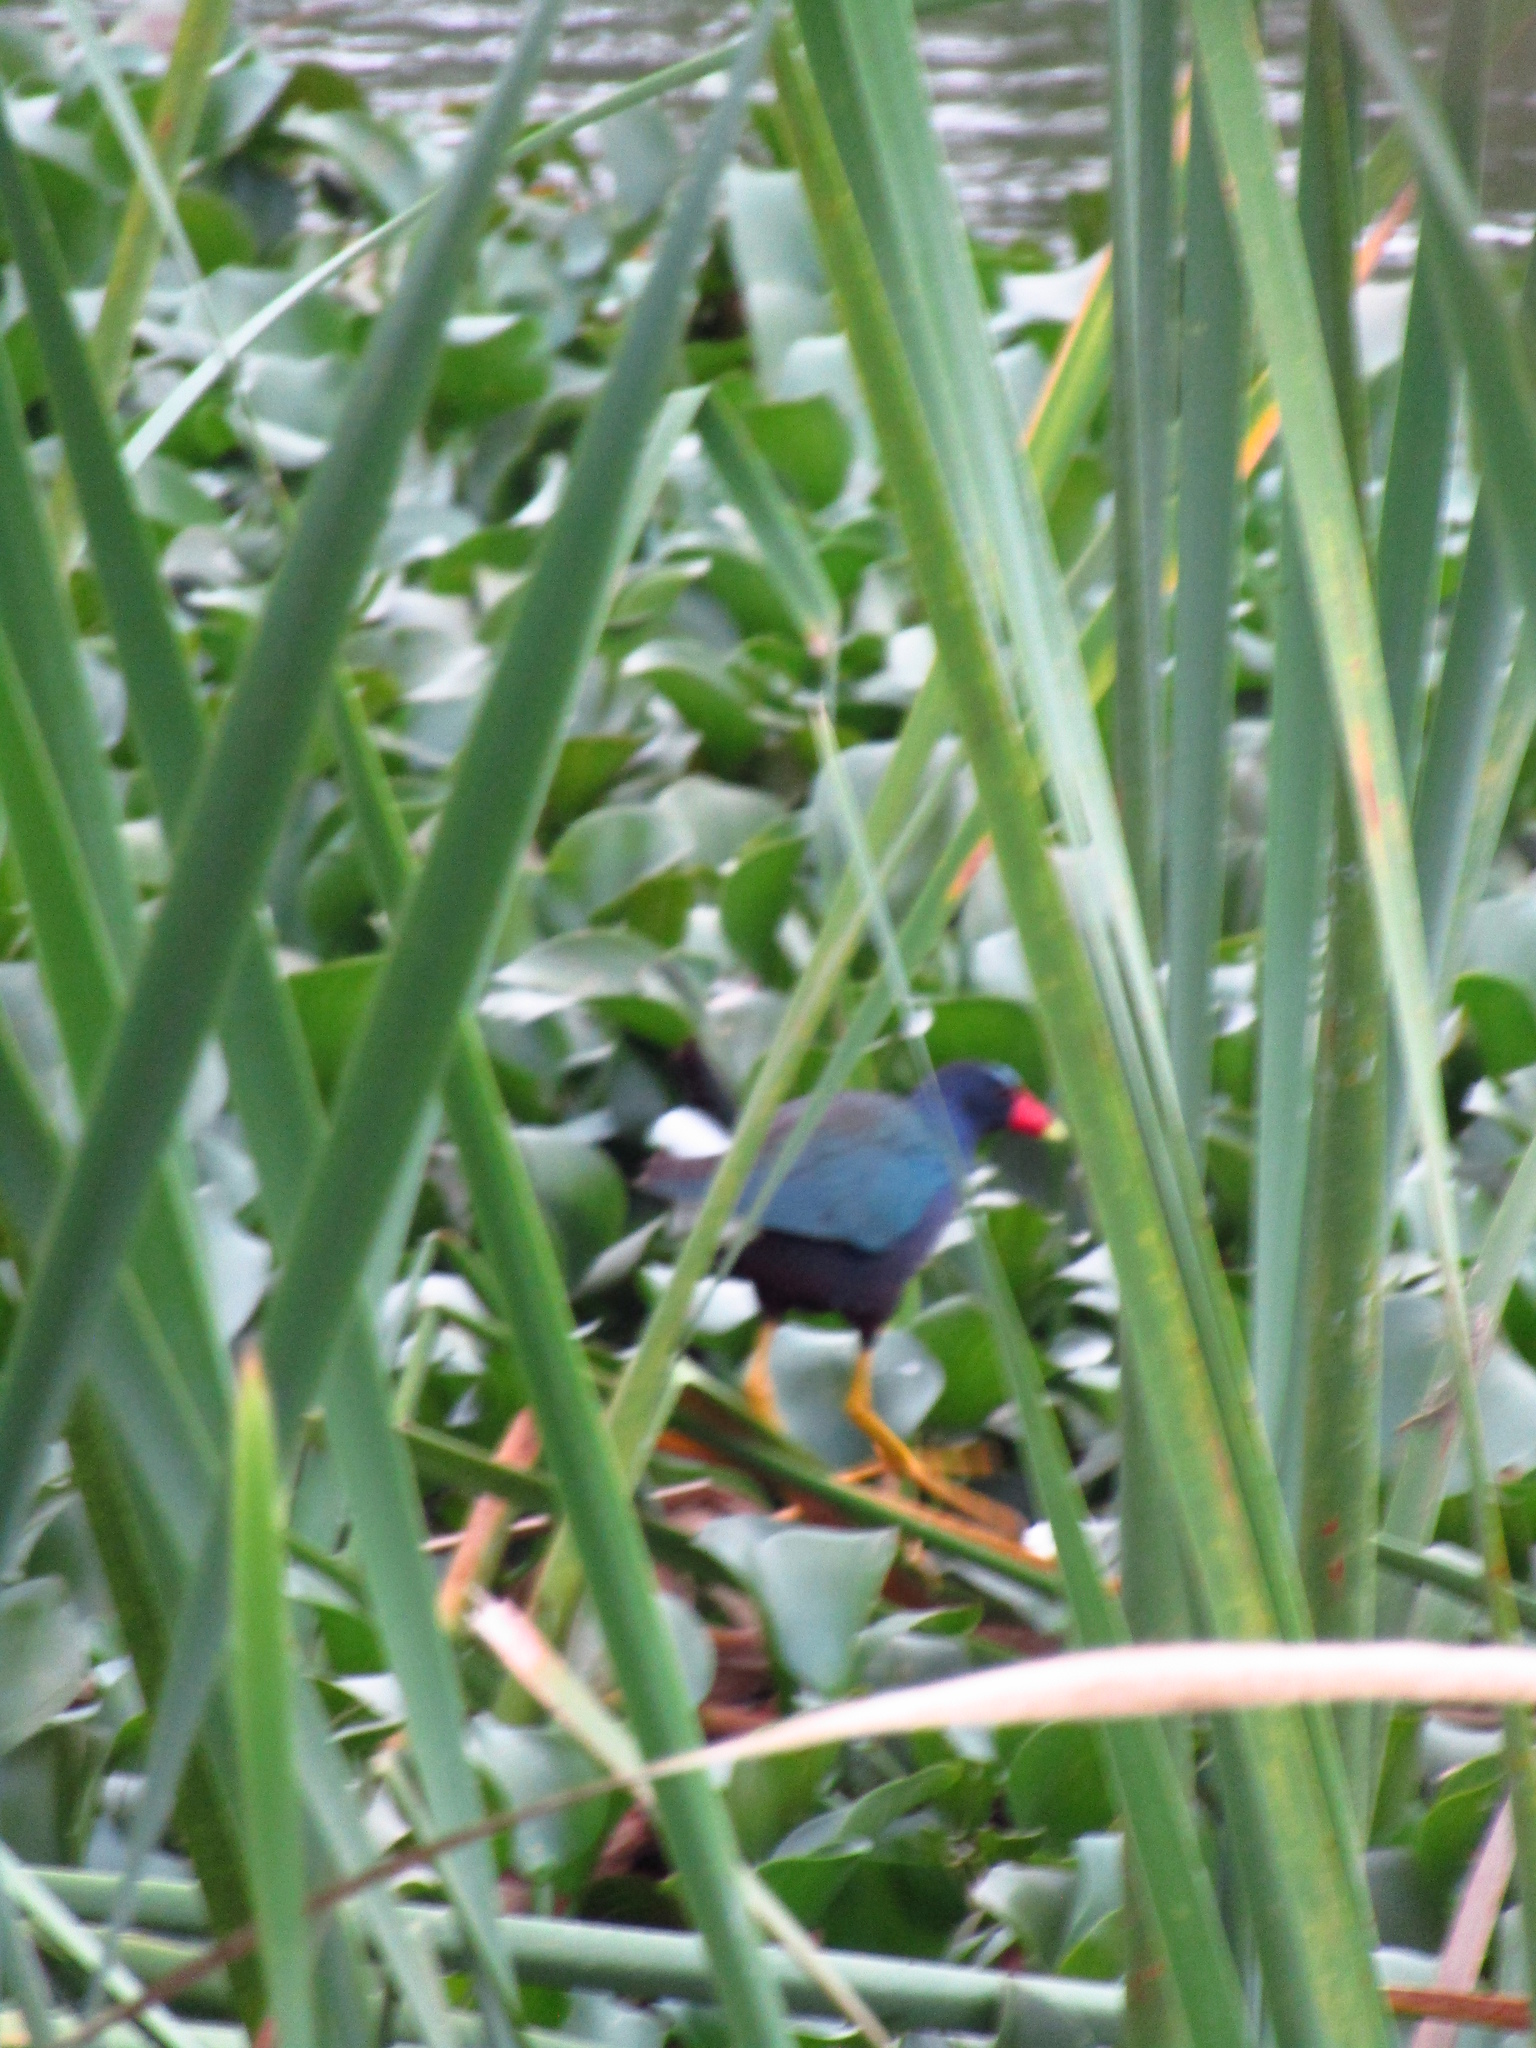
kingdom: Animalia
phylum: Chordata
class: Aves
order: Gruiformes
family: Rallidae
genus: Porphyrio
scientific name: Porphyrio martinica
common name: Purple gallinule
